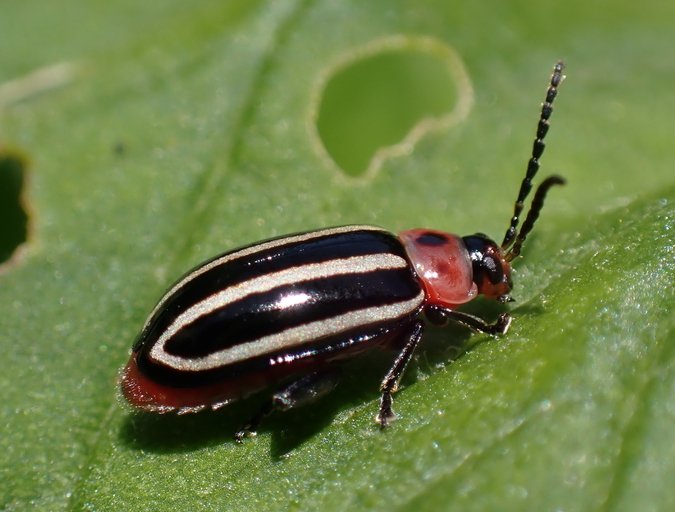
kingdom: Animalia
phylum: Arthropoda
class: Insecta
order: Coleoptera
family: Chrysomelidae
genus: Disonycha
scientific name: Disonycha glabrata
